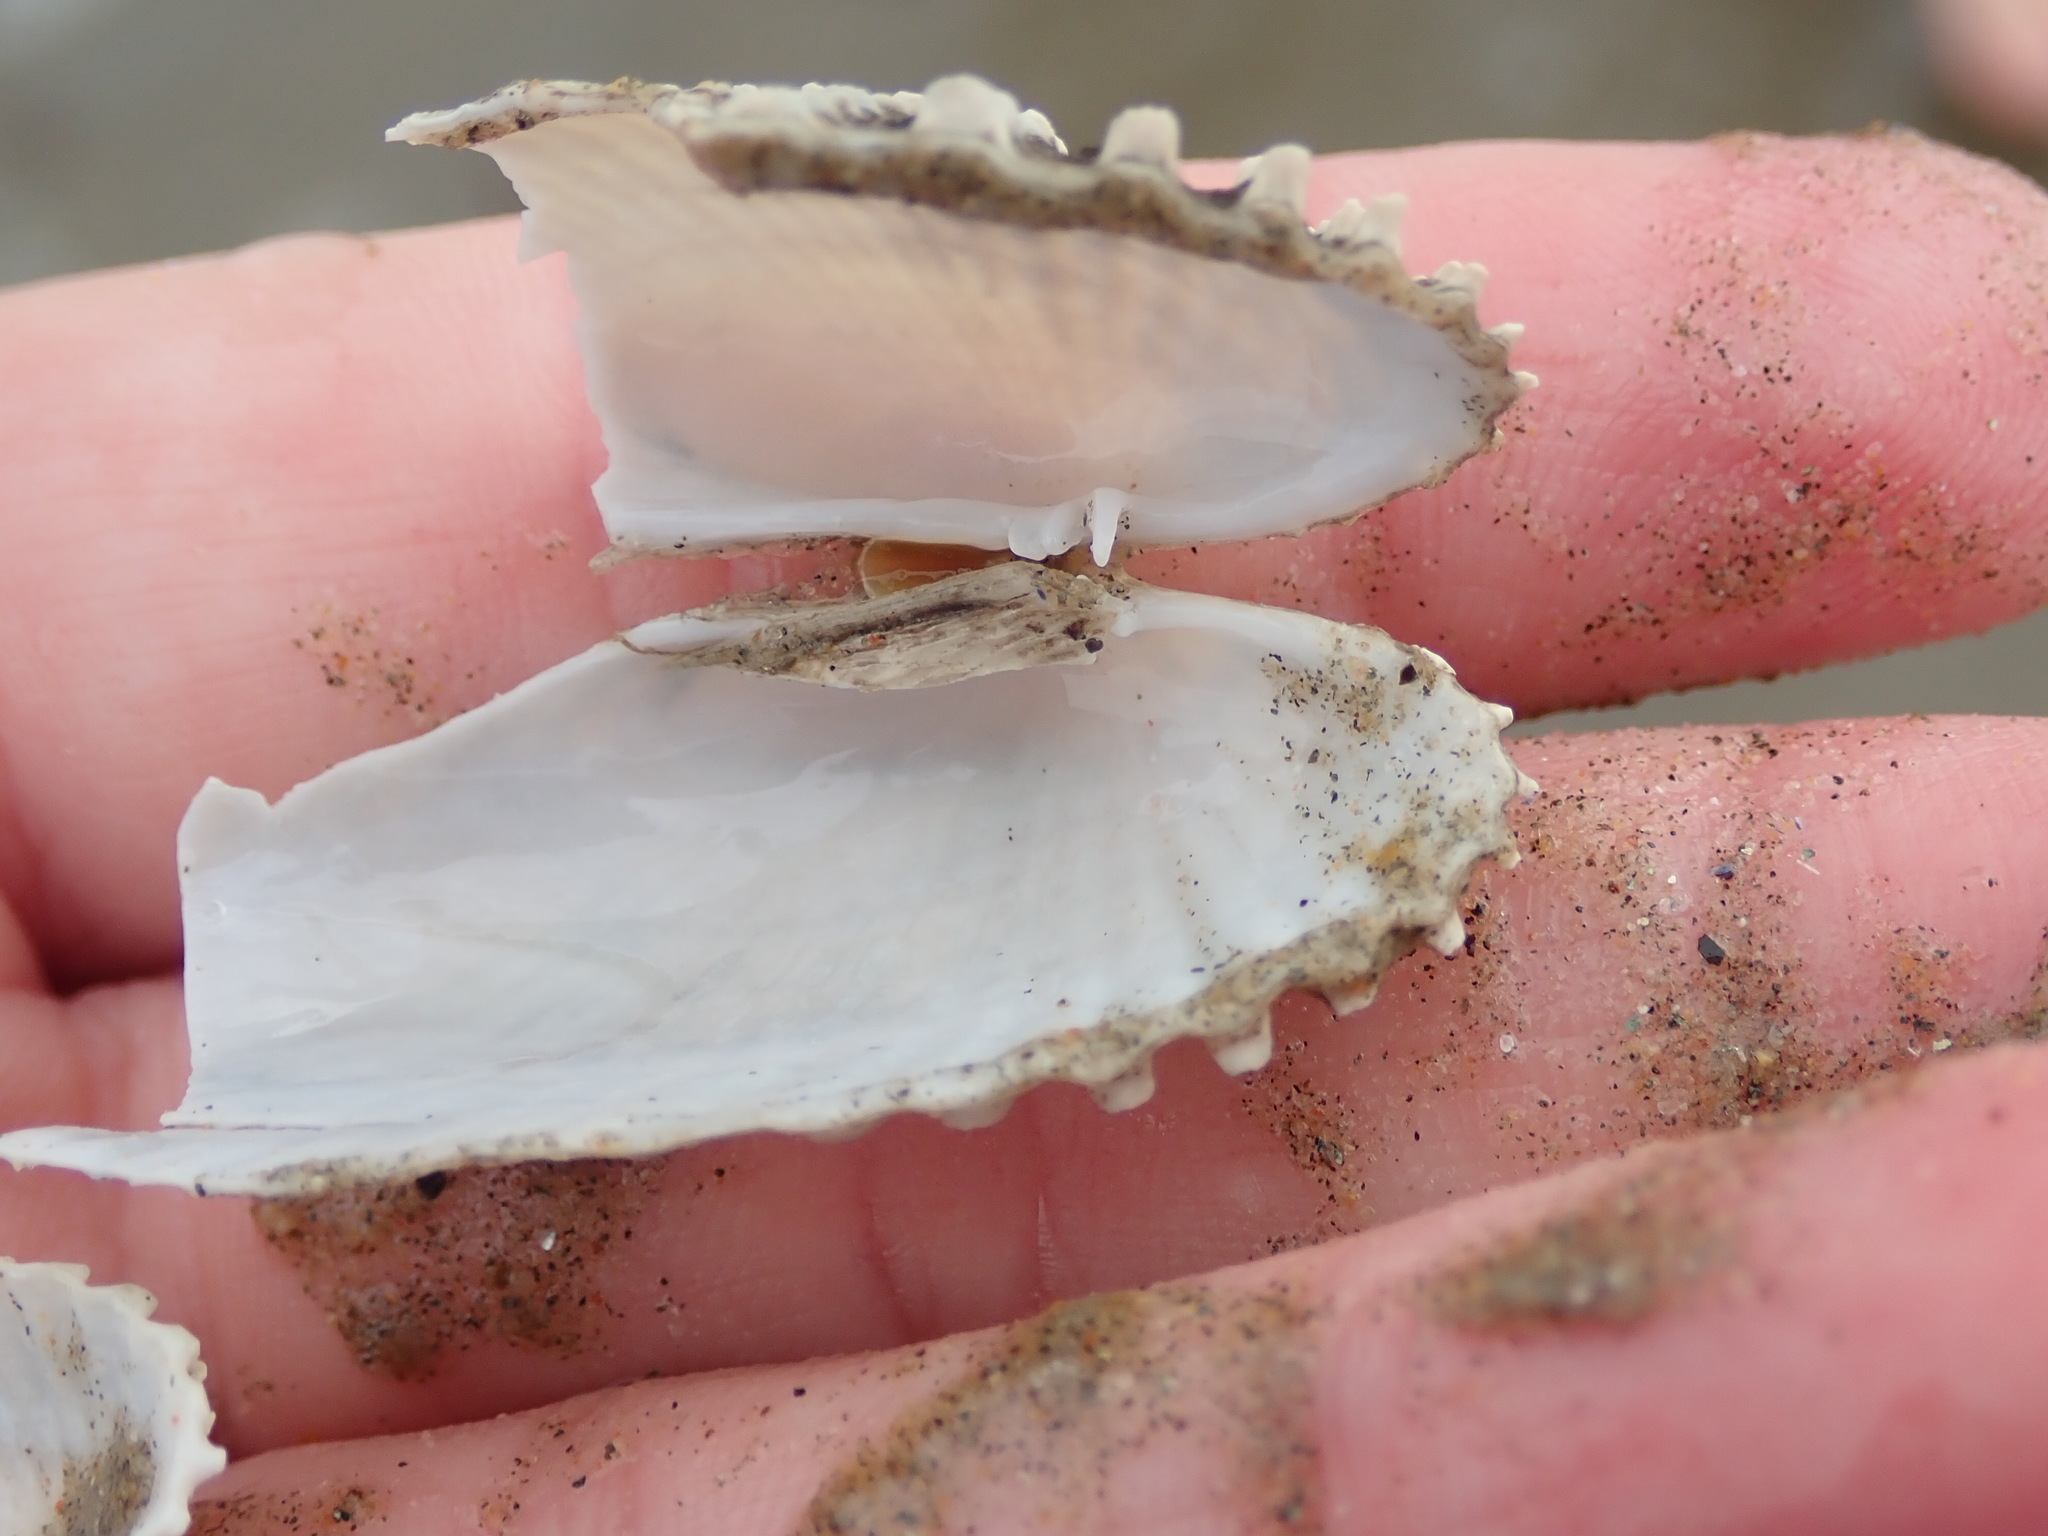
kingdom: Animalia
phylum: Mollusca
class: Bivalvia
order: Venerida
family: Veneridae
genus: Petricolaria
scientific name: Petricolaria pholadiformis
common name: American piddock
